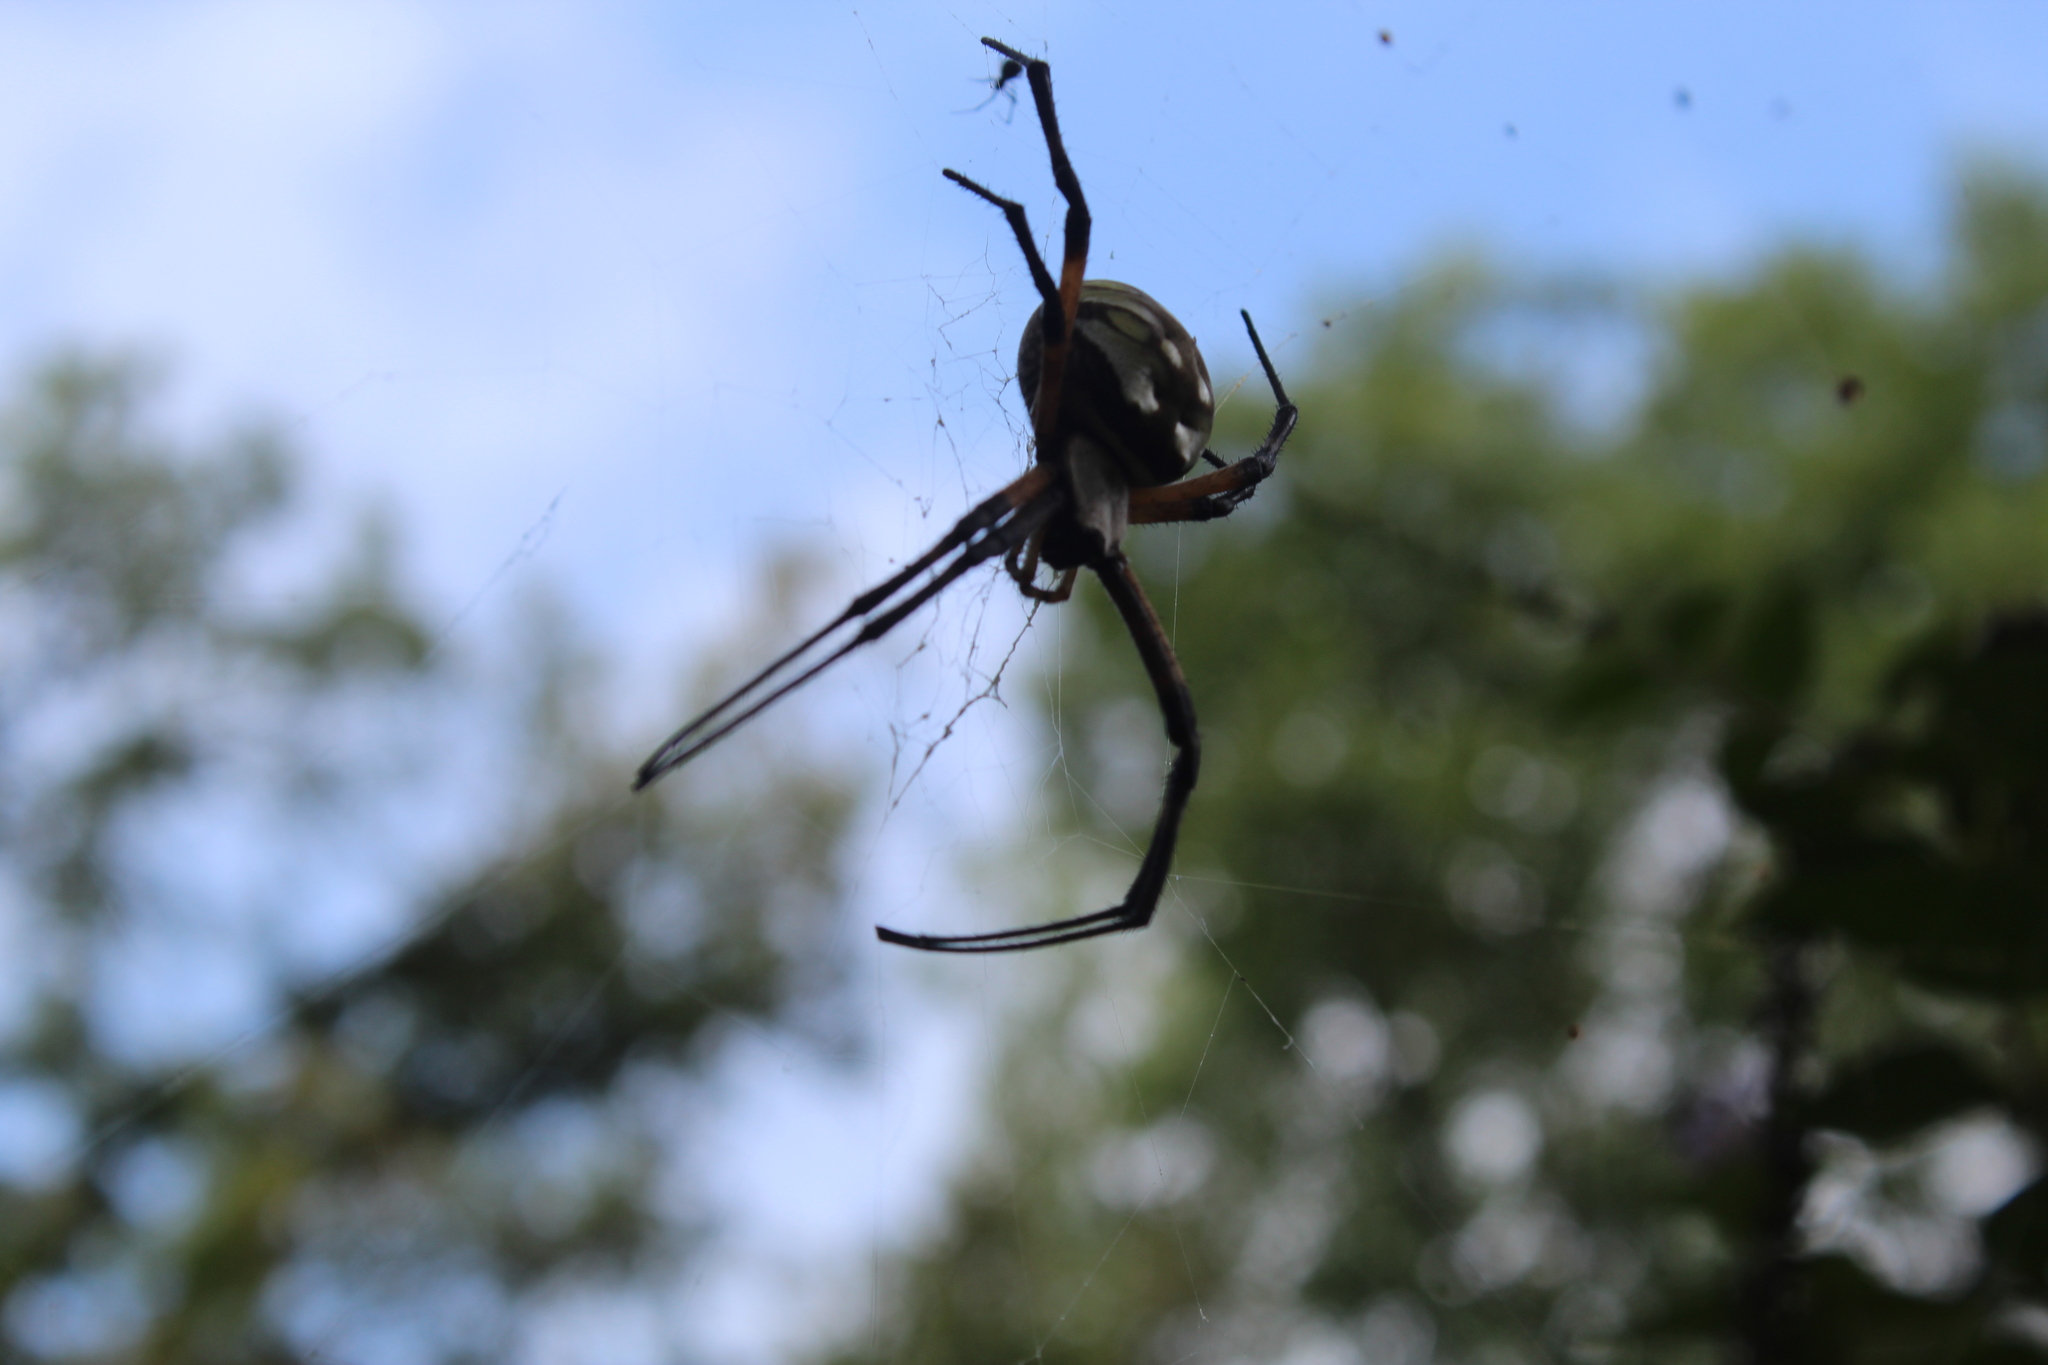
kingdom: Animalia
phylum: Arthropoda
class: Arachnida
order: Araneae
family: Araneidae
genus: Argiope
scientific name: Argiope aurantia
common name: Orb weavers
